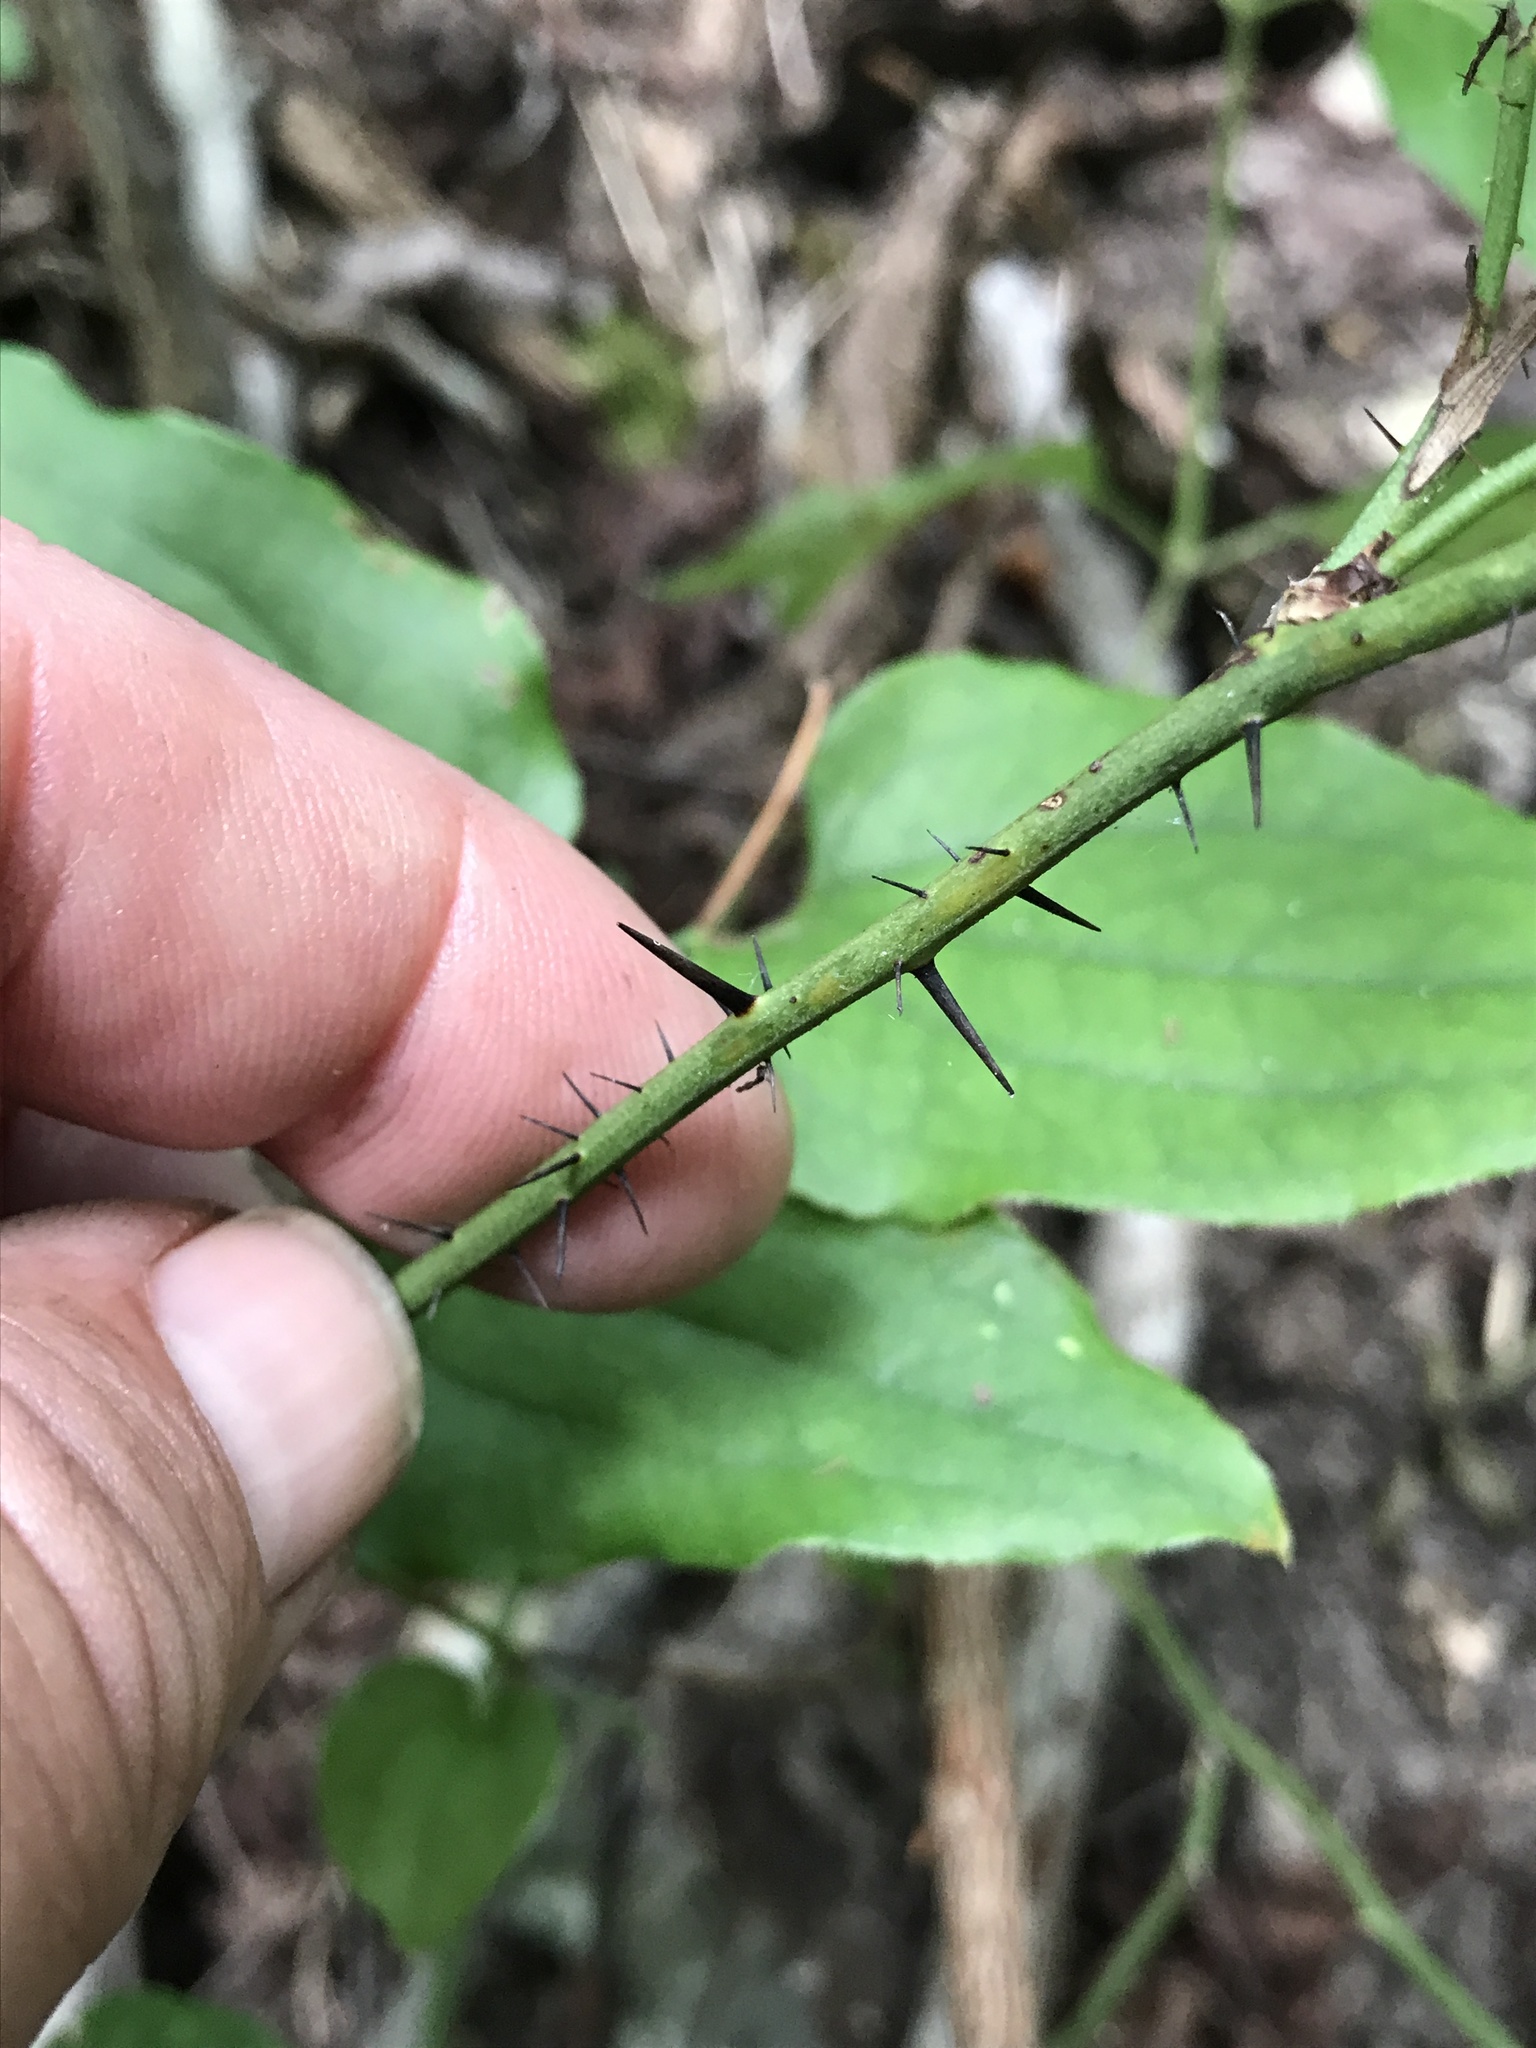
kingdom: Plantae
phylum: Tracheophyta
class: Liliopsida
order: Liliales
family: Smilacaceae
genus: Smilax
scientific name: Smilax tamnoides
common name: Hellfetter
